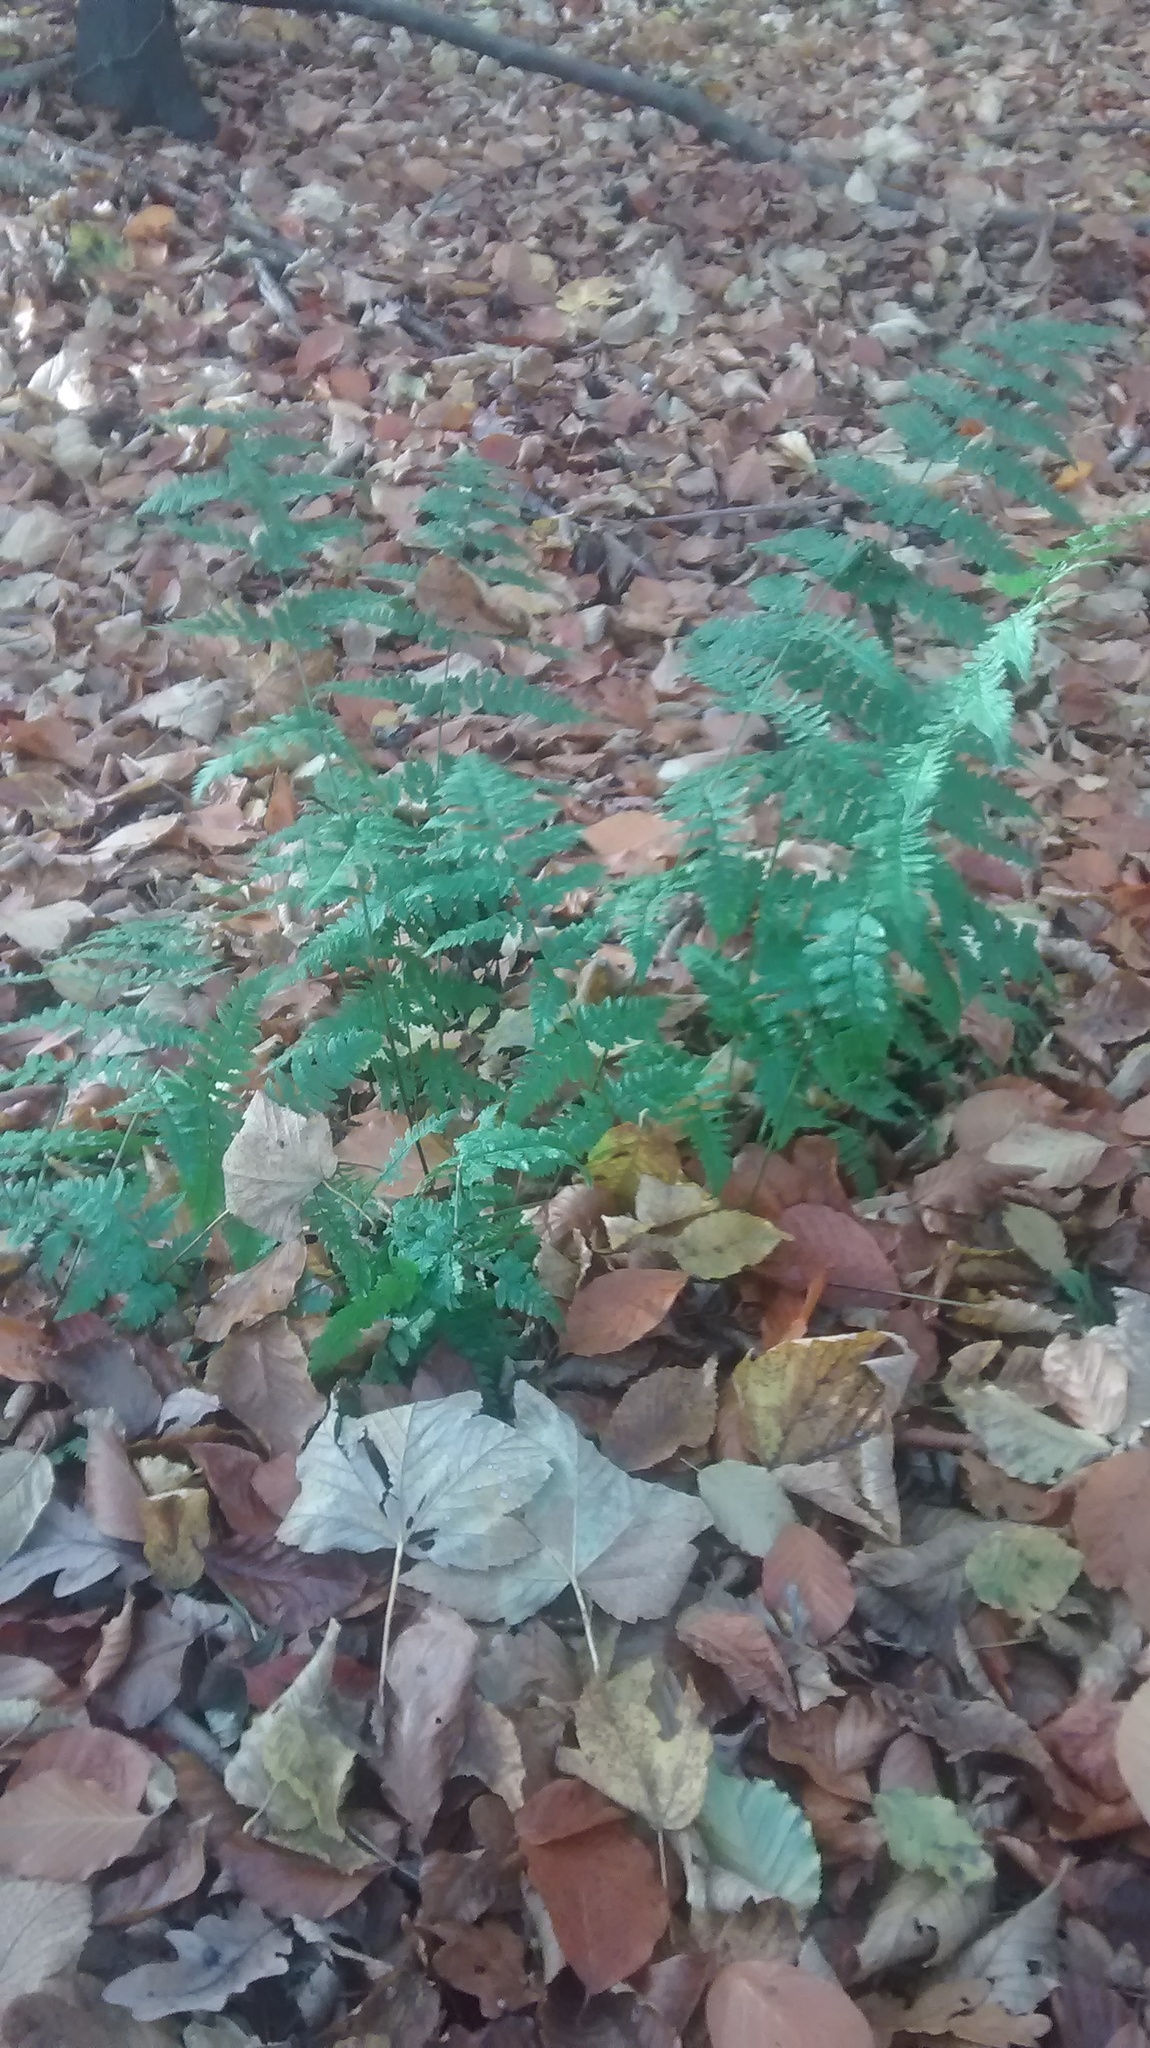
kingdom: Plantae
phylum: Tracheophyta
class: Polypodiopsida
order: Polypodiales
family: Dryopteridaceae
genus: Dryopteris
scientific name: Dryopteris carthusiana
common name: Narrow buckler-fern
